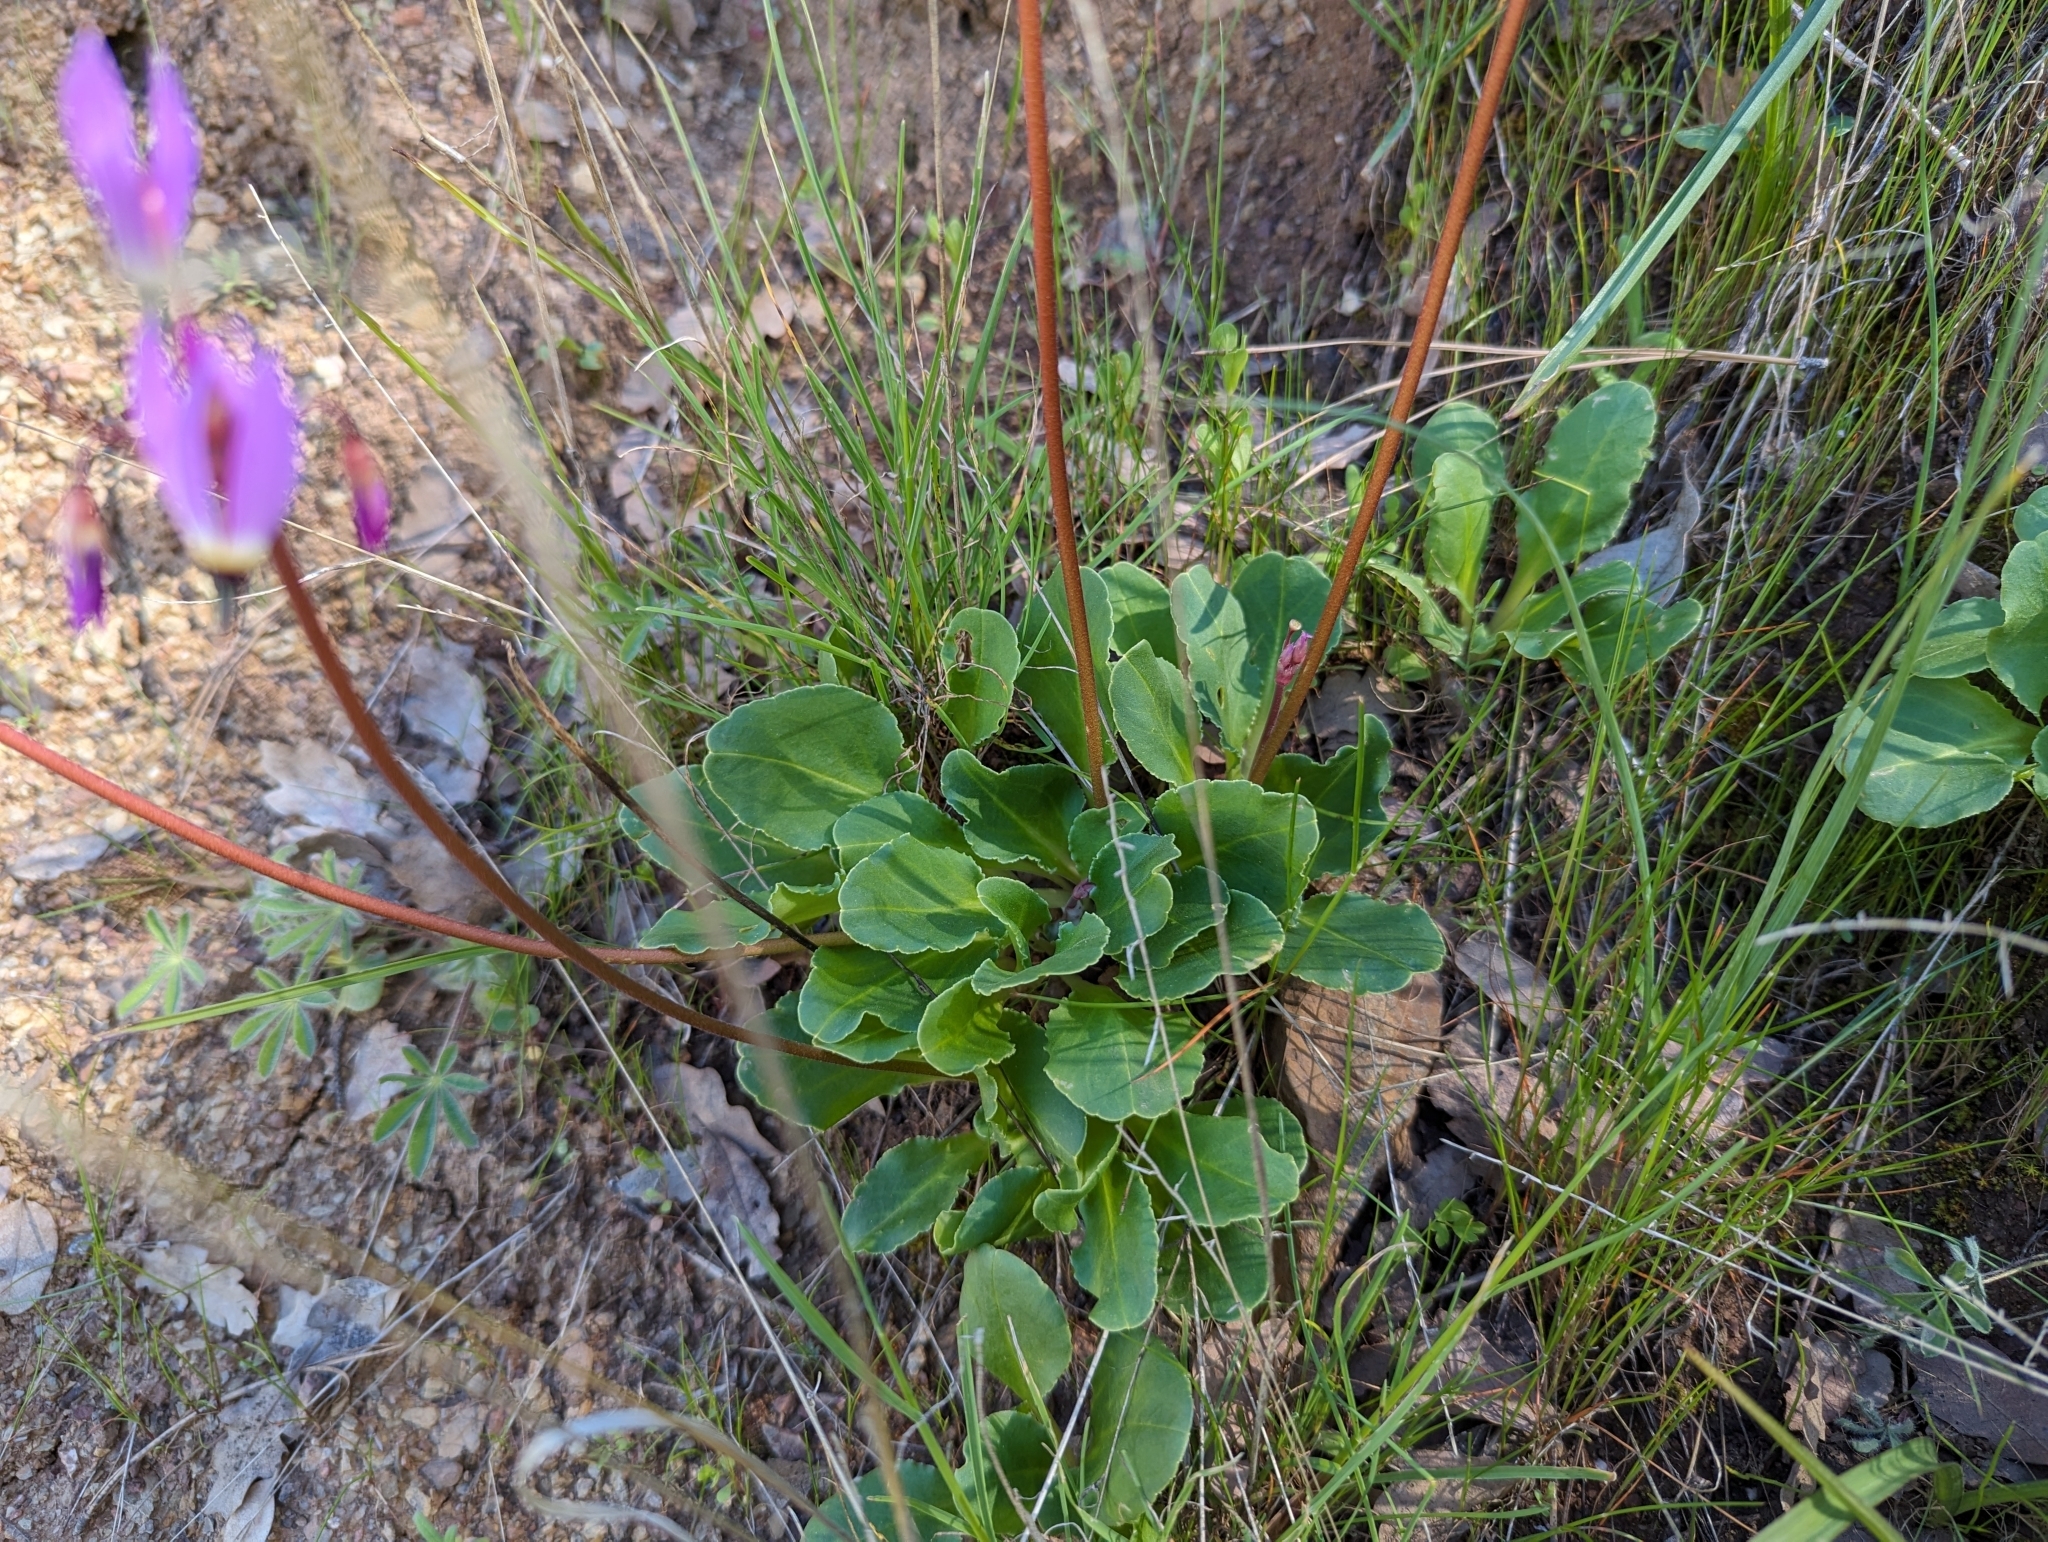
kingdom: Plantae
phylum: Tracheophyta
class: Magnoliopsida
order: Ericales
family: Primulaceae
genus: Dodecatheon
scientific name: Dodecatheon hendersonii
